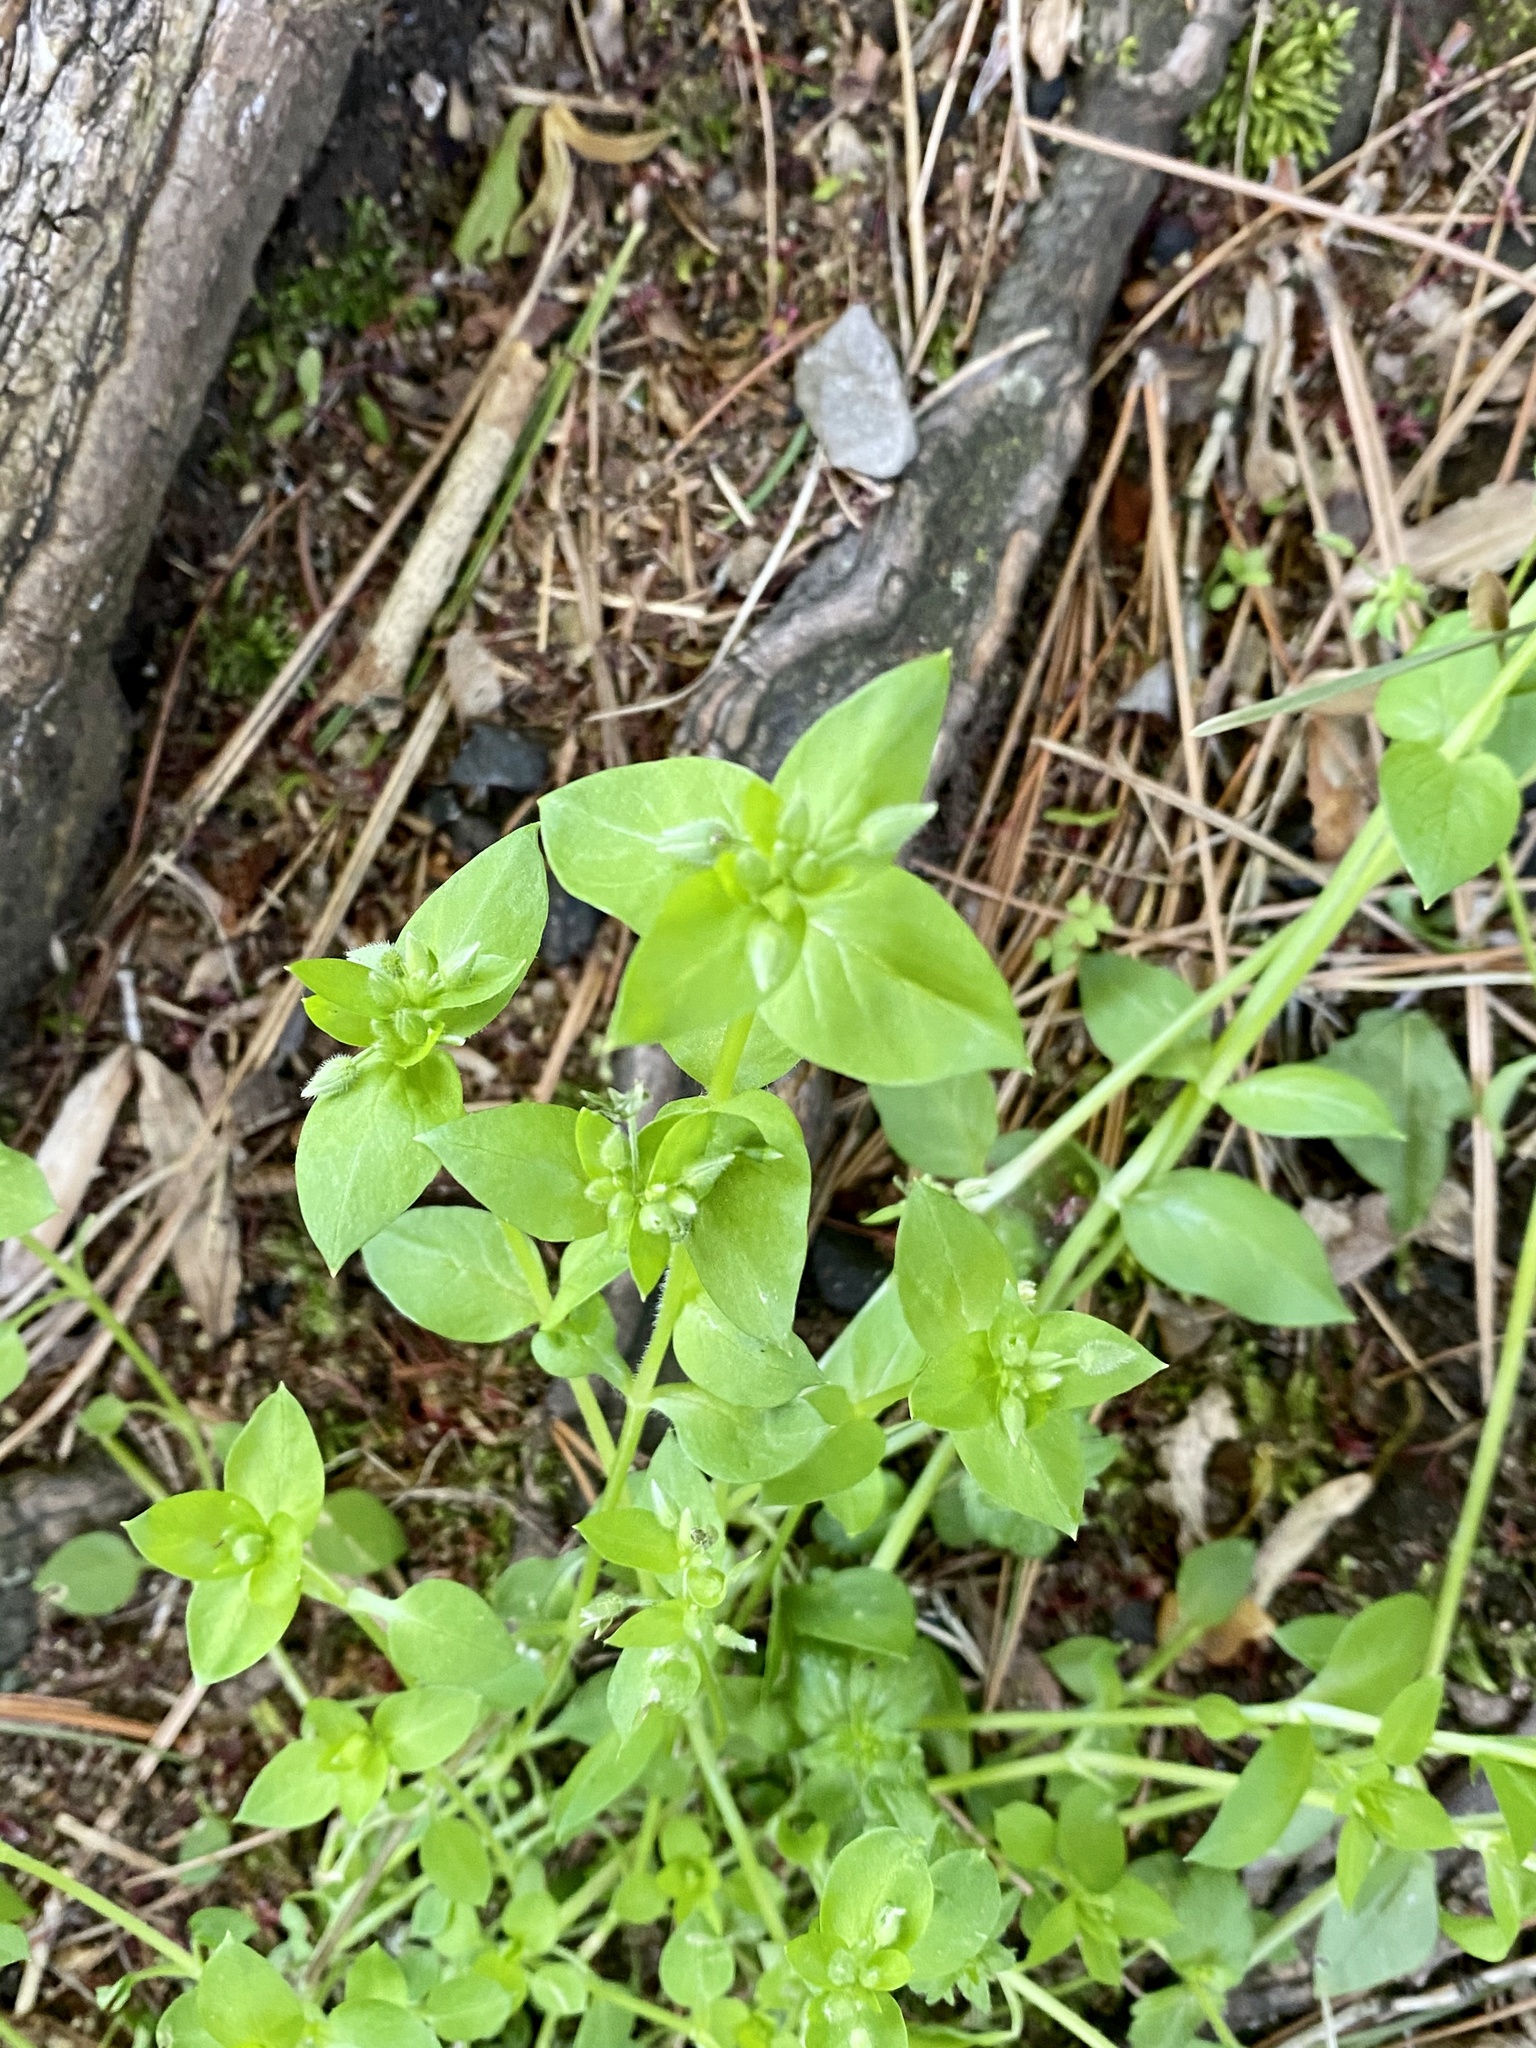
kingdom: Plantae
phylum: Tracheophyta
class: Magnoliopsida
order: Caryophyllales
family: Caryophyllaceae
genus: Stellaria
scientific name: Stellaria media
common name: Common chickweed
